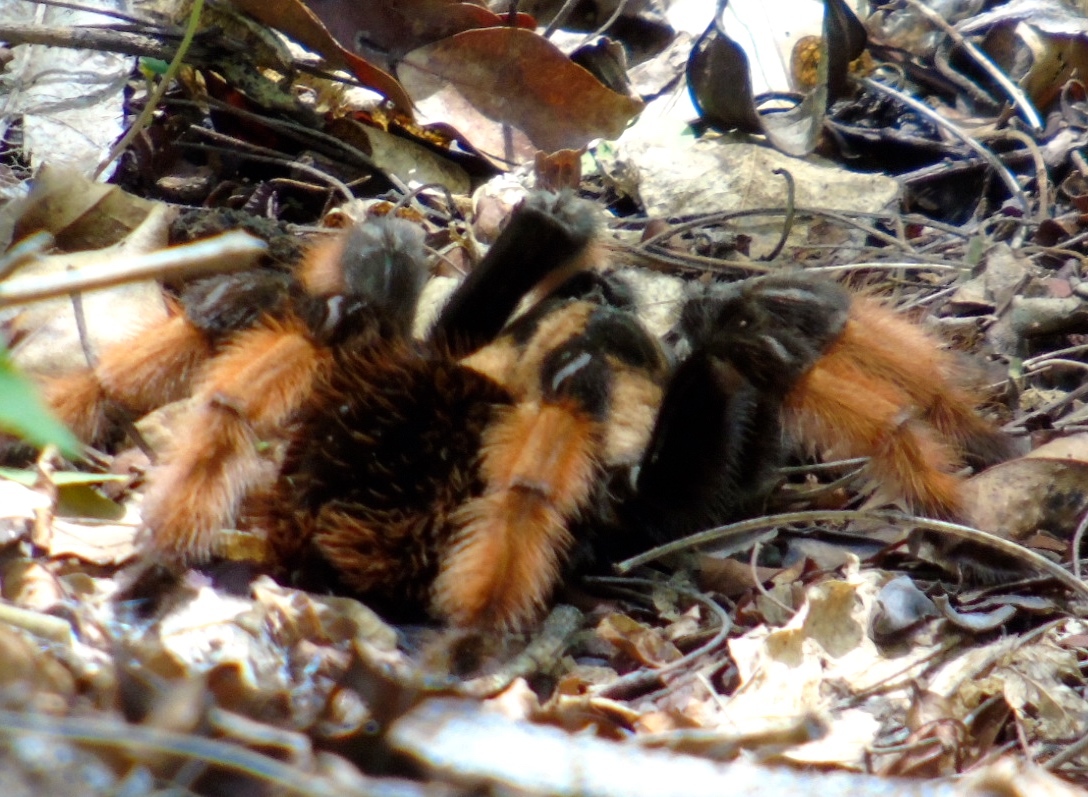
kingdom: Animalia
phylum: Arthropoda
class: Arachnida
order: Araneae
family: Theraphosidae
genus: Brachypelma
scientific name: Brachypelma emilia
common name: Mexican redleg
